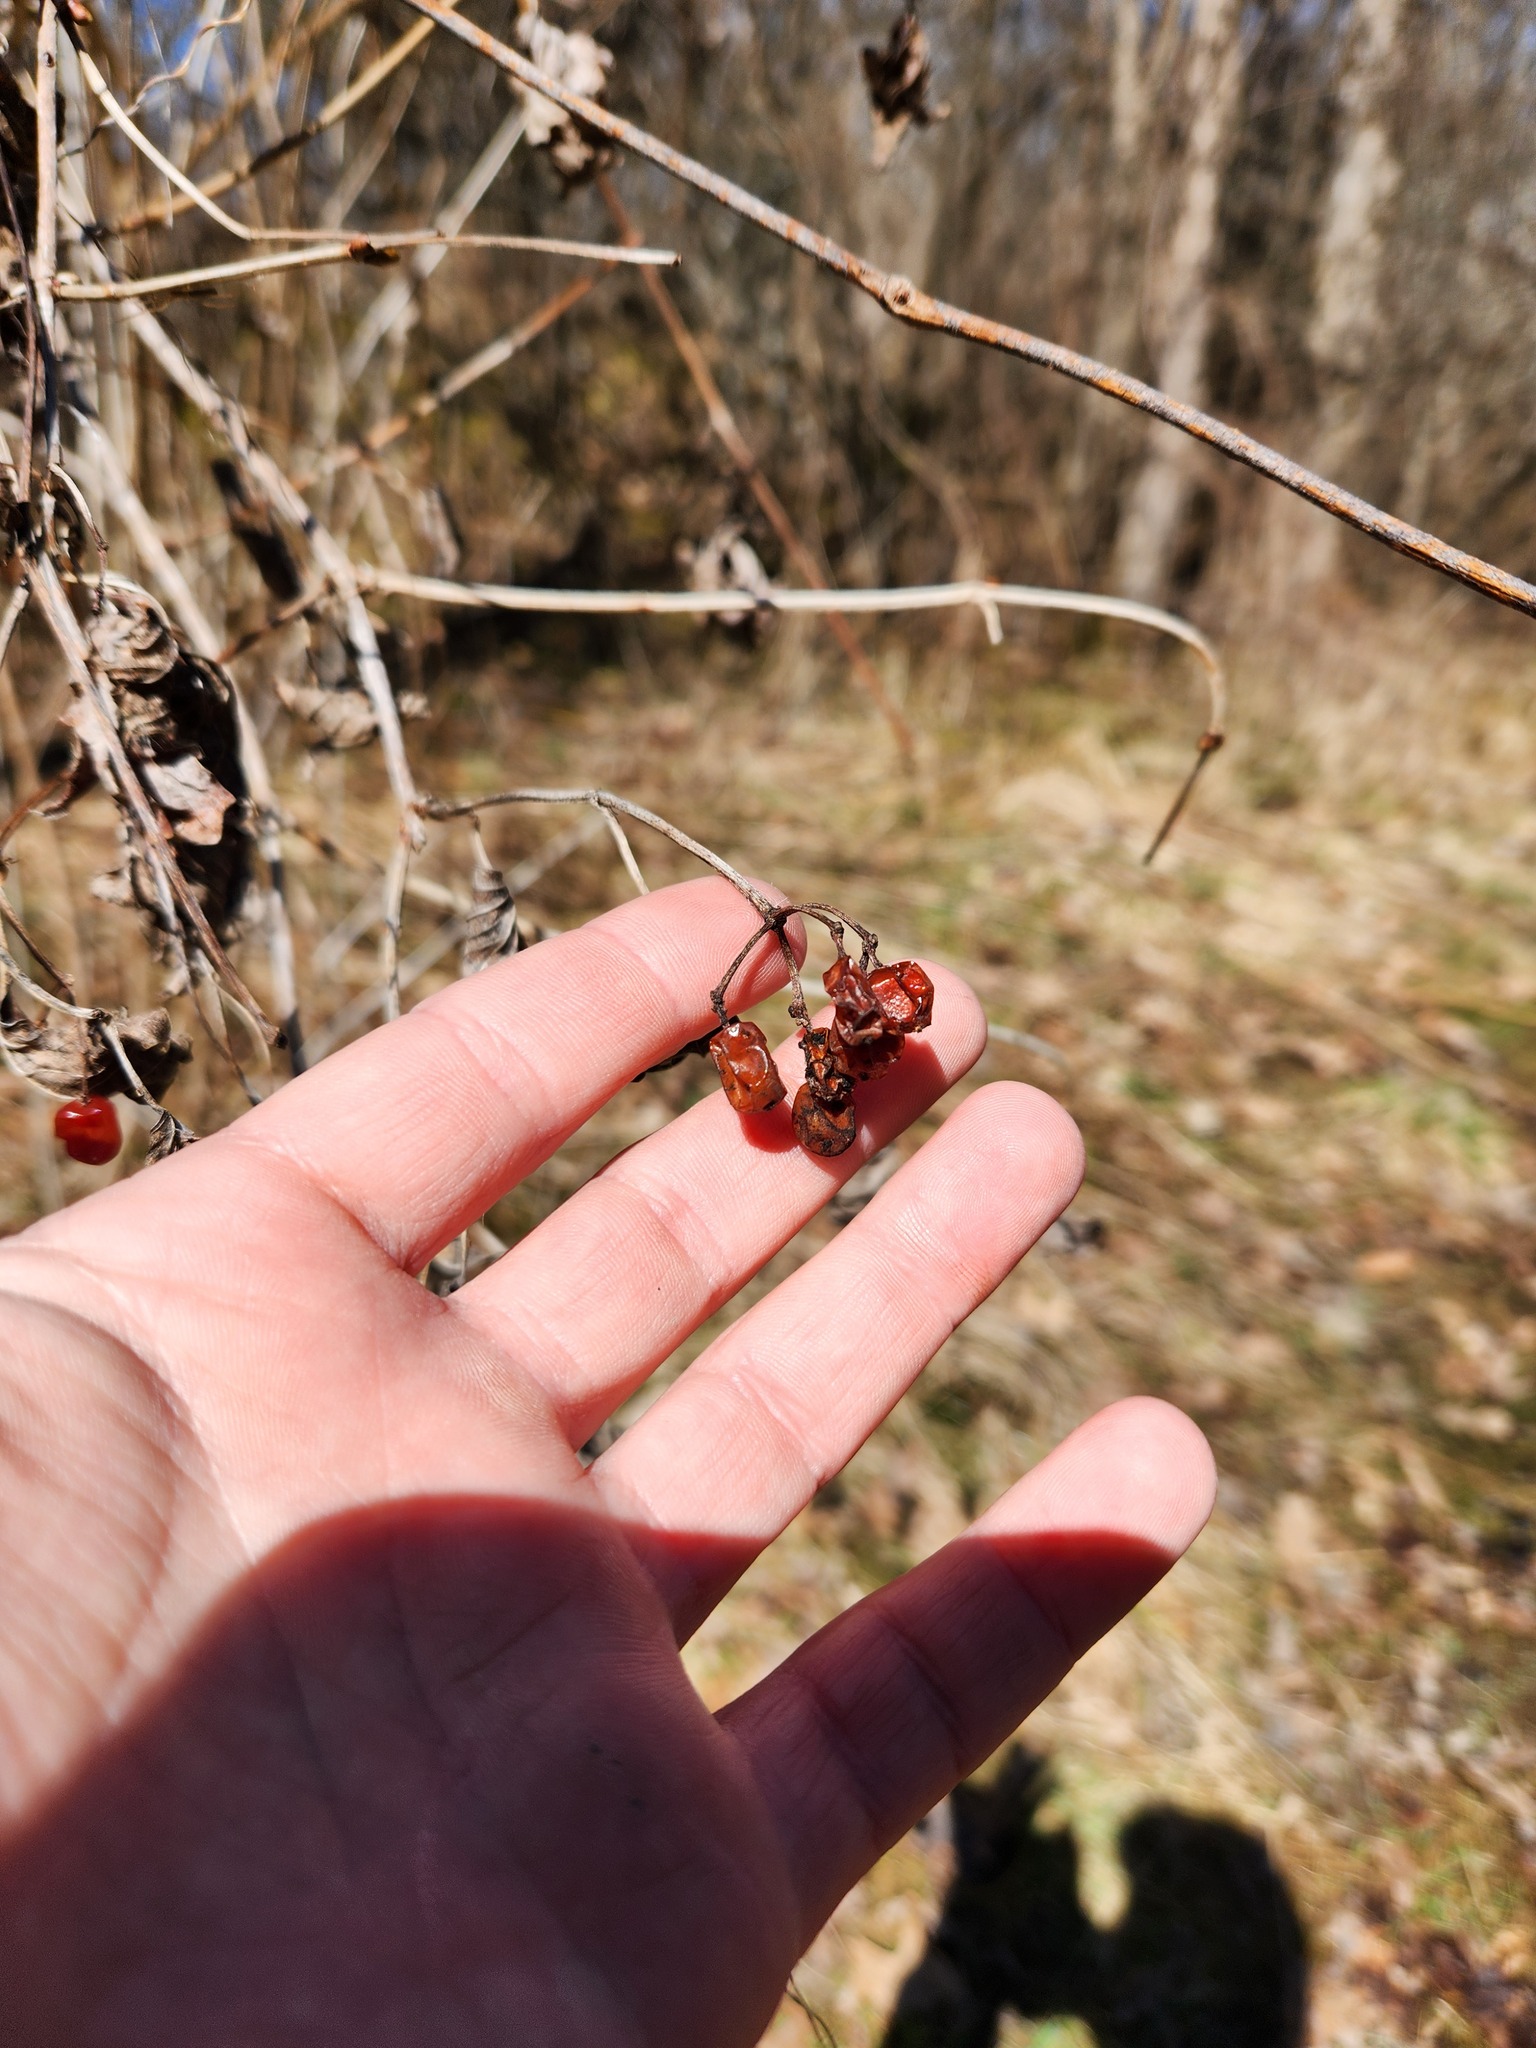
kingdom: Plantae
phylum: Tracheophyta
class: Magnoliopsida
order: Dipsacales
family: Viburnaceae
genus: Viburnum
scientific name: Viburnum opulus
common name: Guelder-rose
